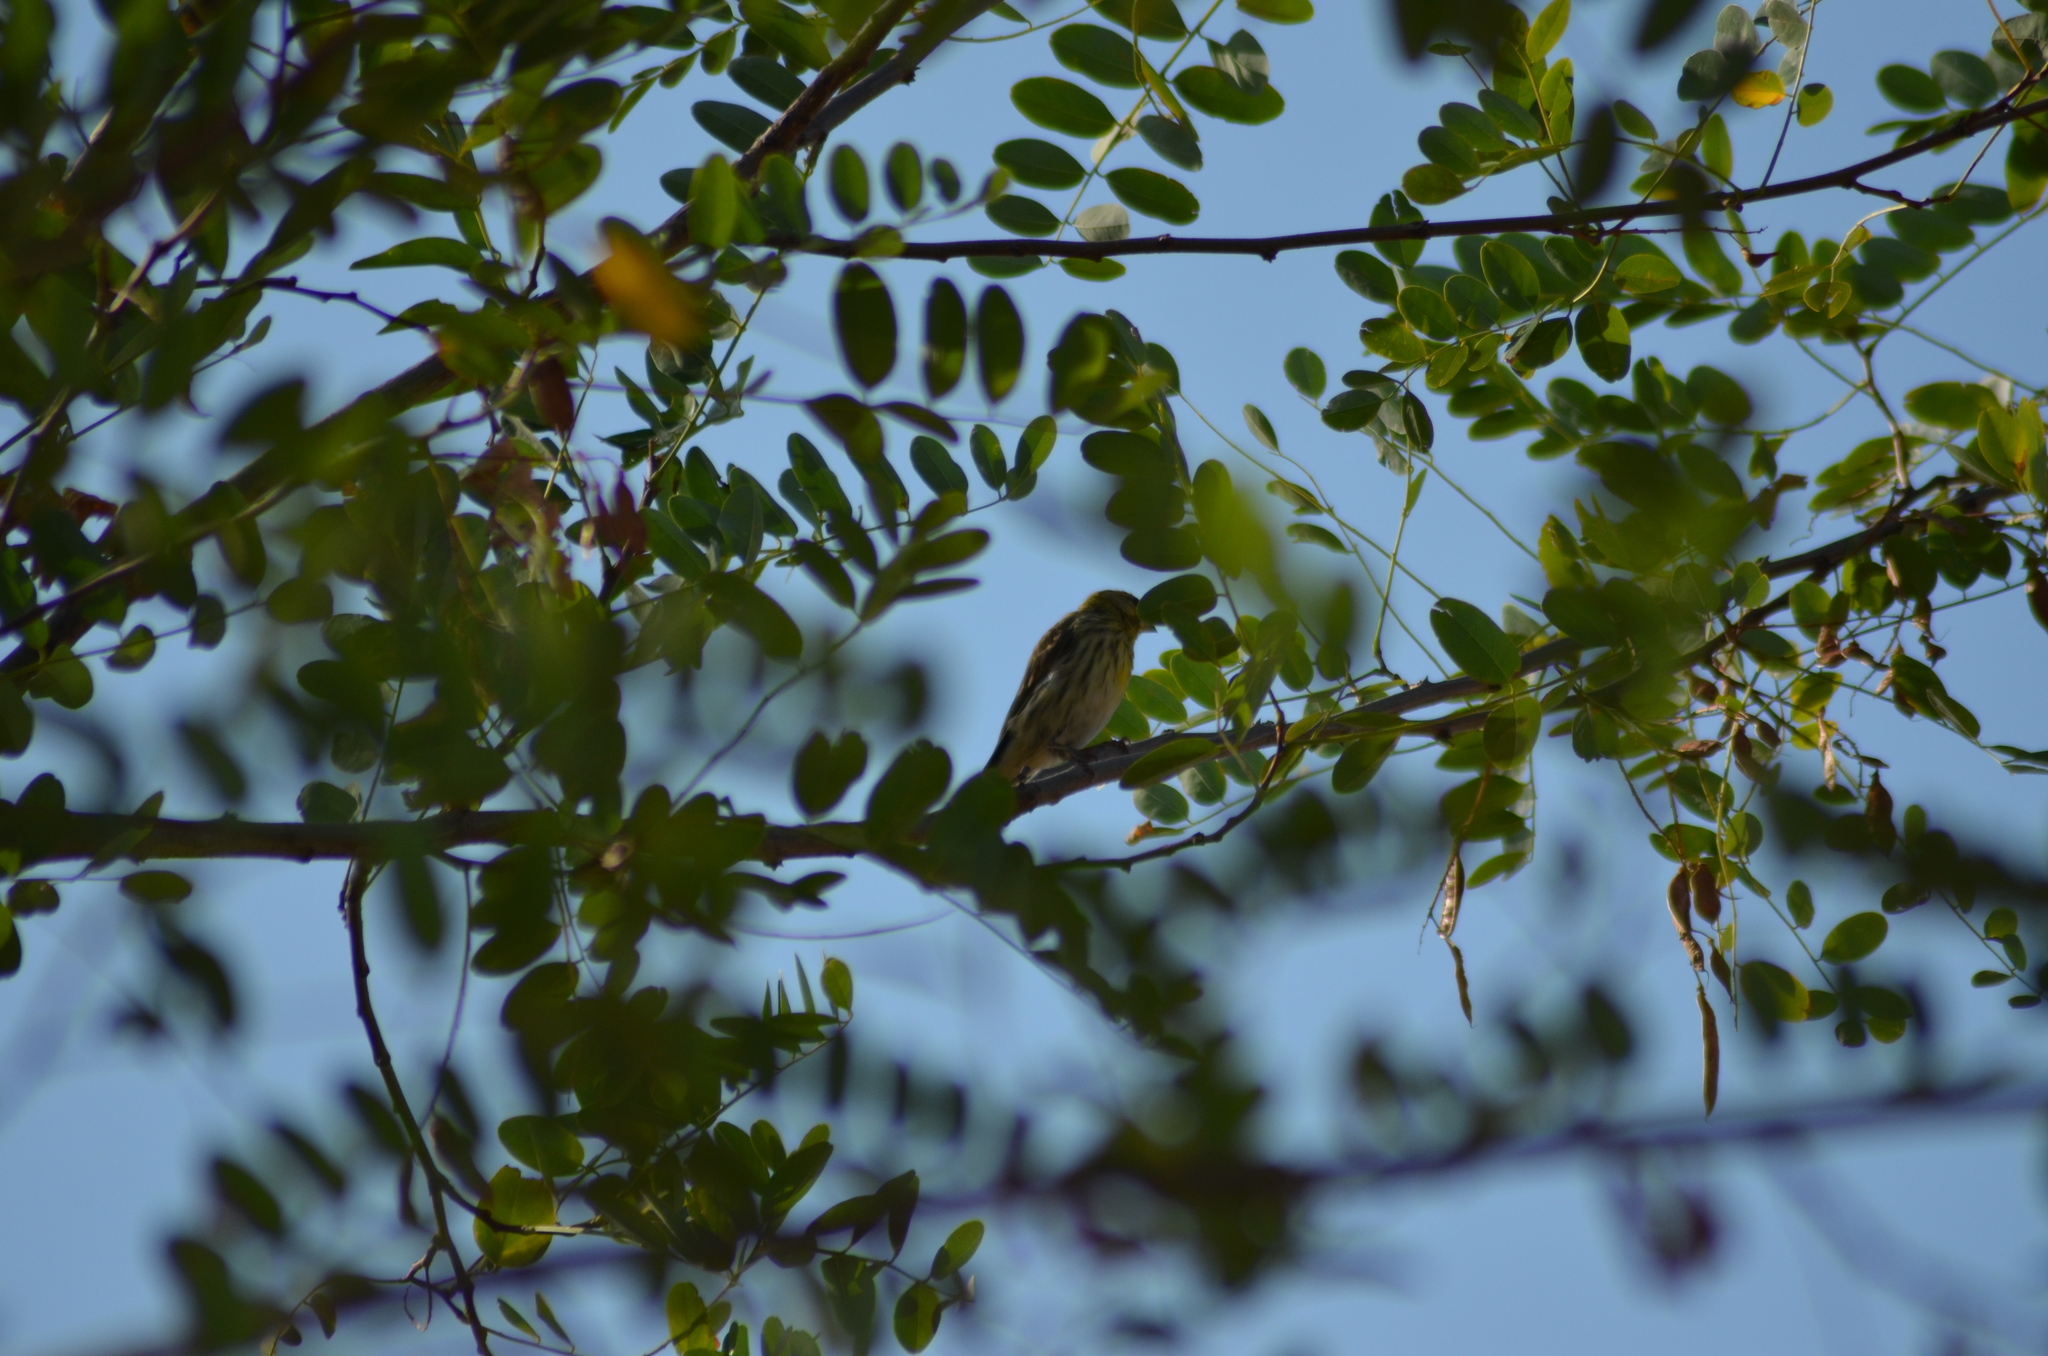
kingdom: Animalia
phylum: Chordata
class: Aves
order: Passeriformes
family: Fringillidae
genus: Serinus
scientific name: Serinus serinus
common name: European serin
